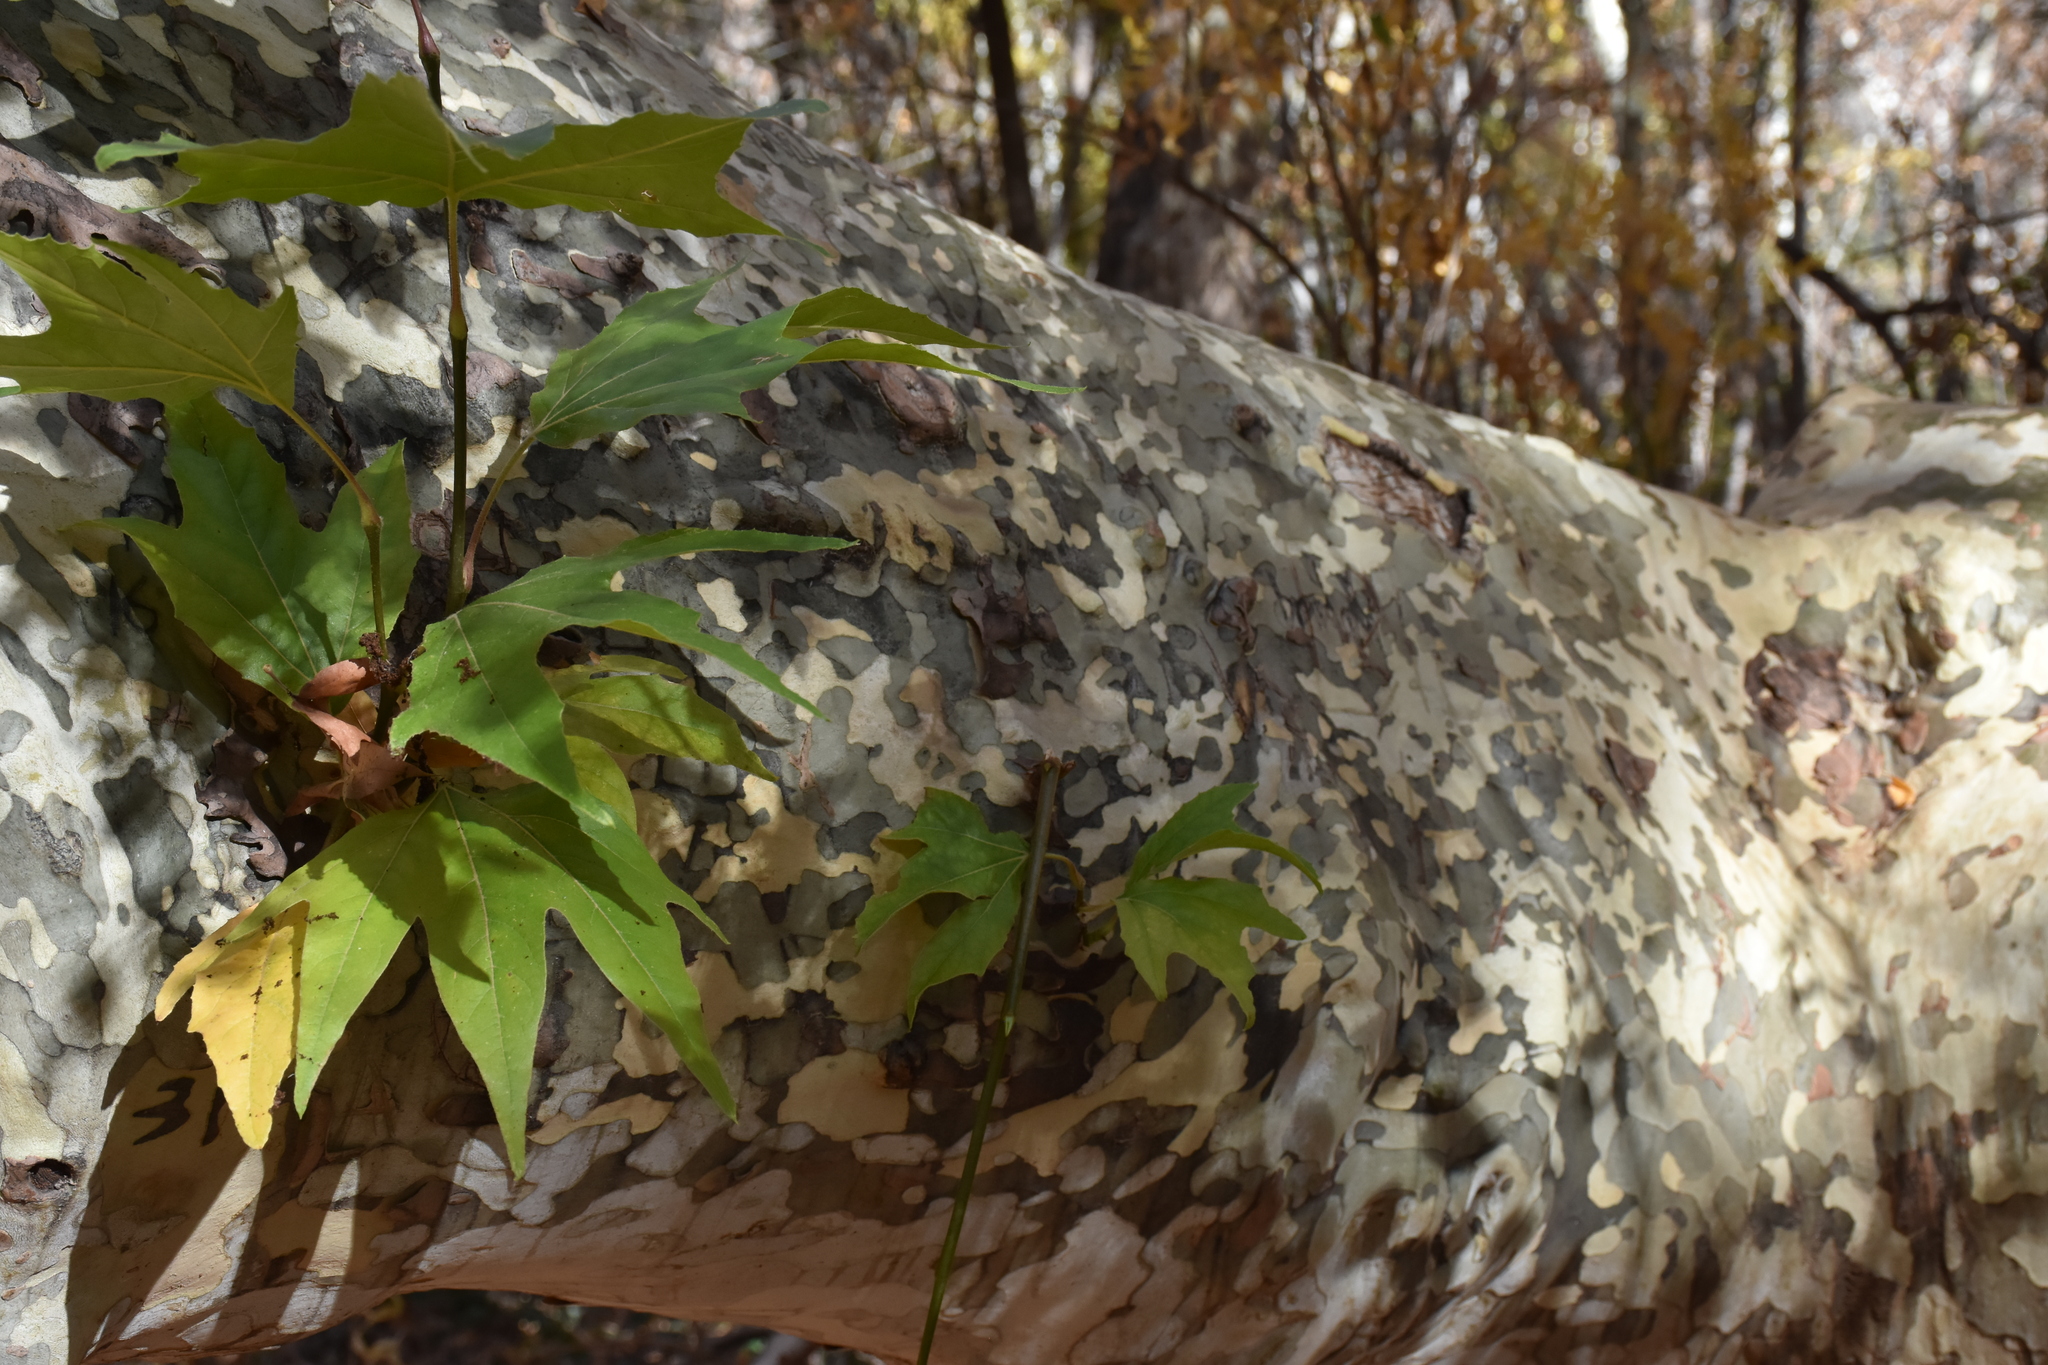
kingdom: Plantae
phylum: Tracheophyta
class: Magnoliopsida
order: Proteales
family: Platanaceae
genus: Platanus
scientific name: Platanus wrightii
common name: Arizona sycamore
